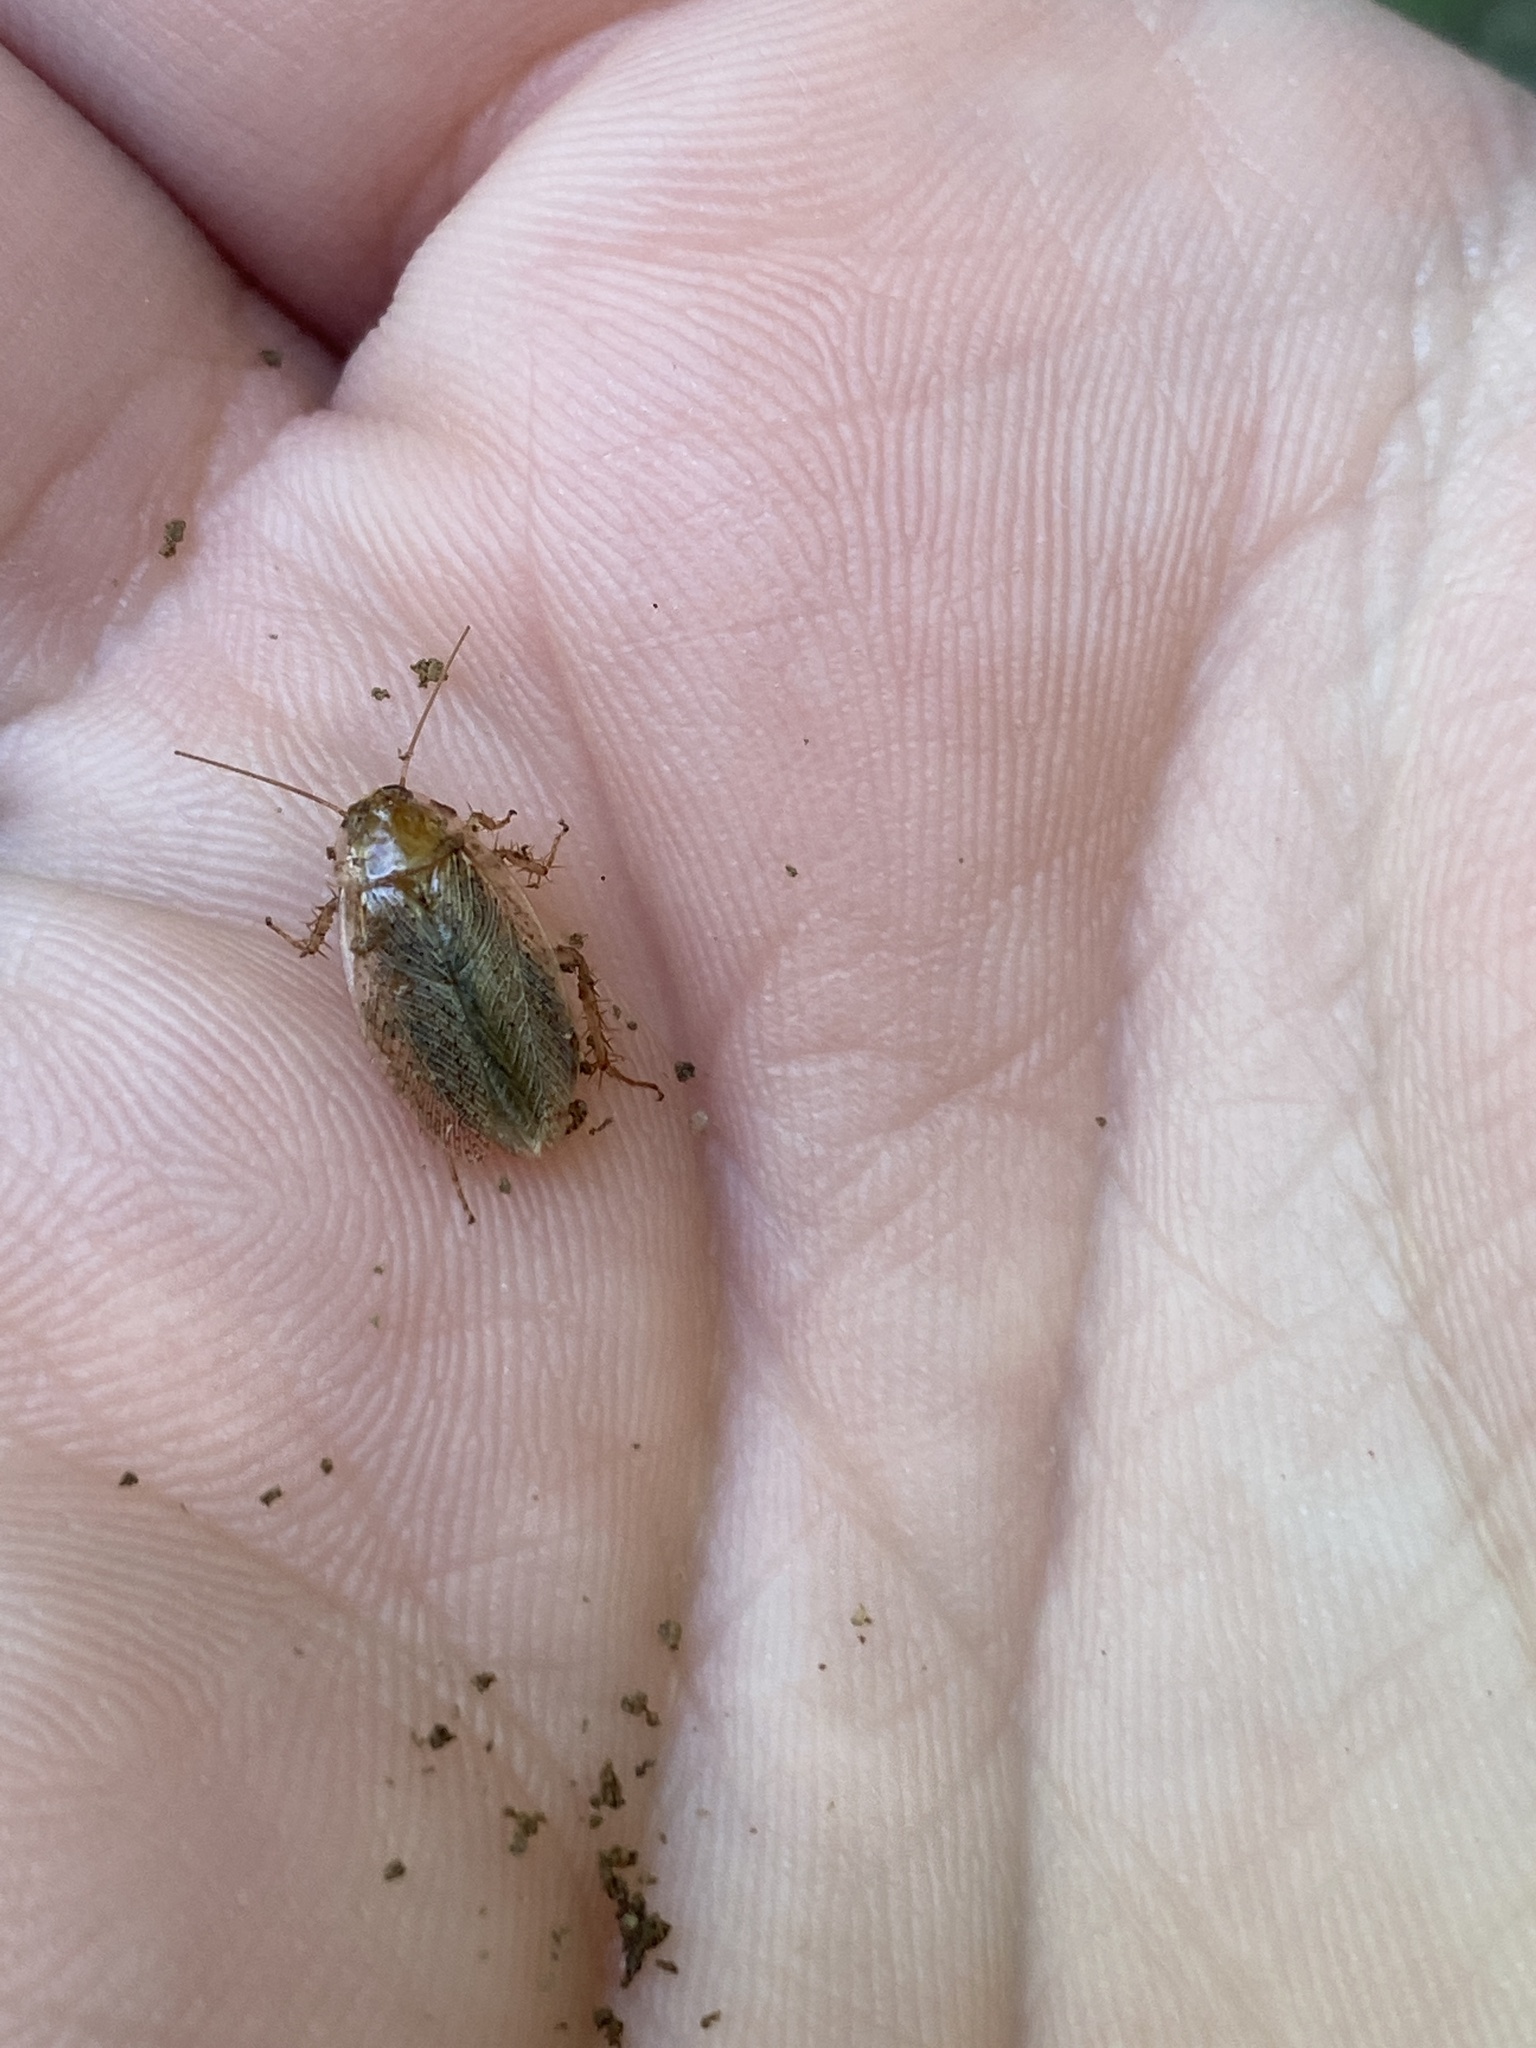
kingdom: Animalia
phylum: Arthropoda
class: Insecta
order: Blattodea
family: Ectobiidae
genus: Ectobius
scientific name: Ectobius pallidus
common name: Tawny cockroach
